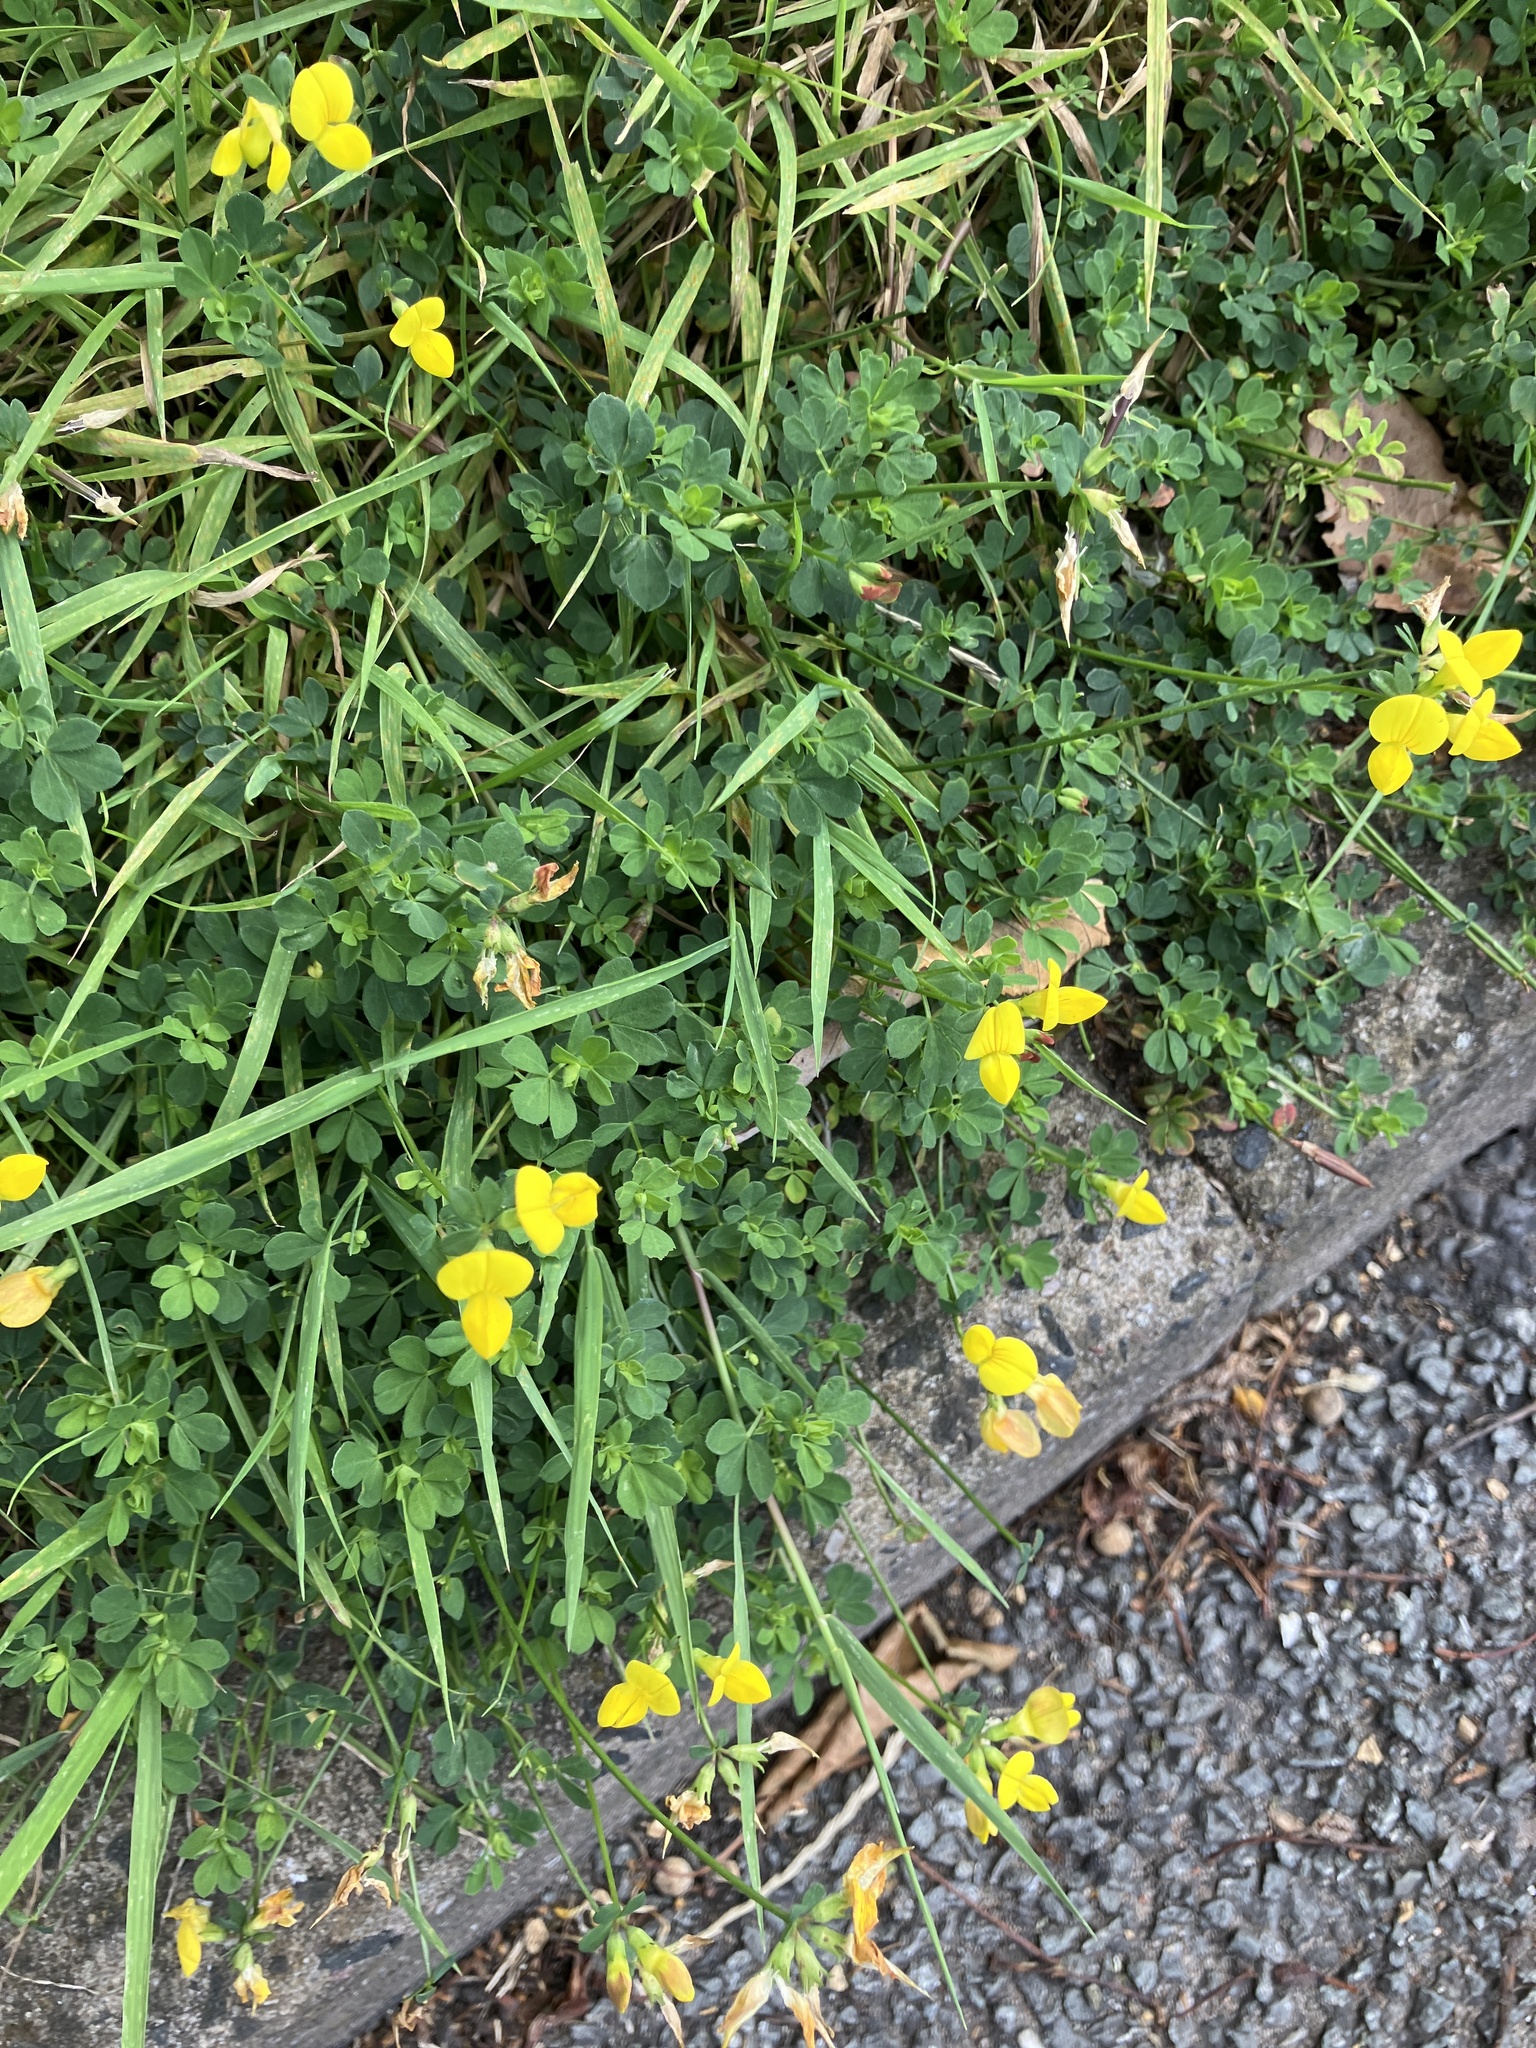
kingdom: Plantae
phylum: Tracheophyta
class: Magnoliopsida
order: Fabales
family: Fabaceae
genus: Lotus
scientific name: Lotus corniculatus
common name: Common bird's-foot-trefoil
